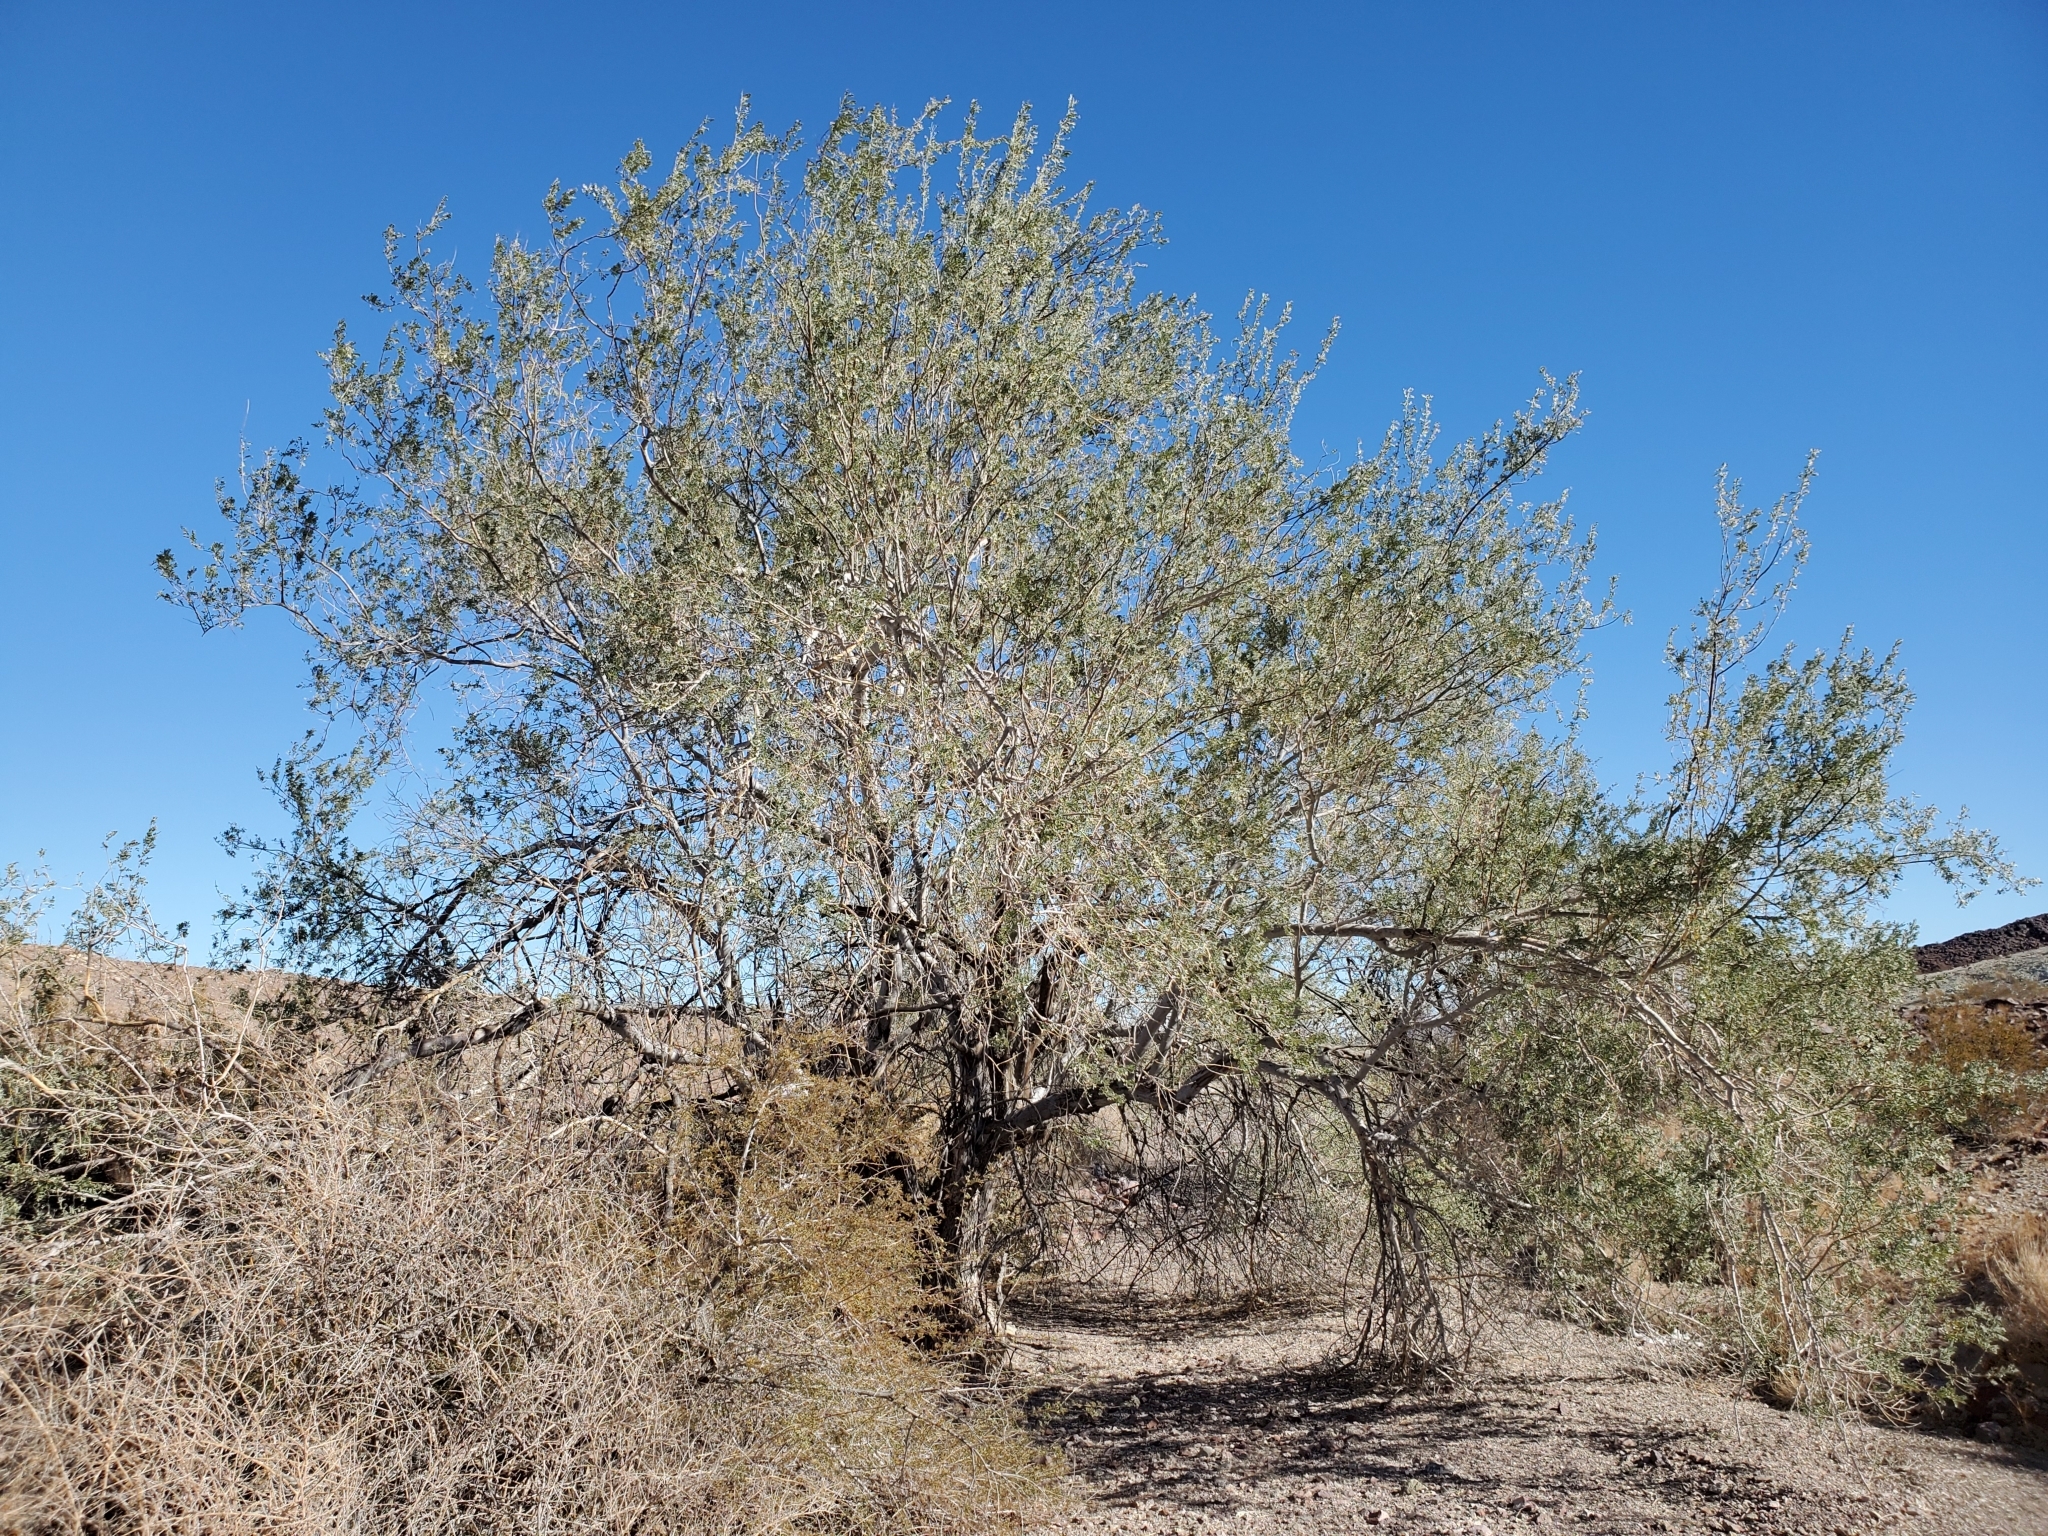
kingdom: Plantae
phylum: Tracheophyta
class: Magnoliopsida
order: Fabales
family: Fabaceae
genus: Olneya
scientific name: Olneya tesota
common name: Desert ironwood
